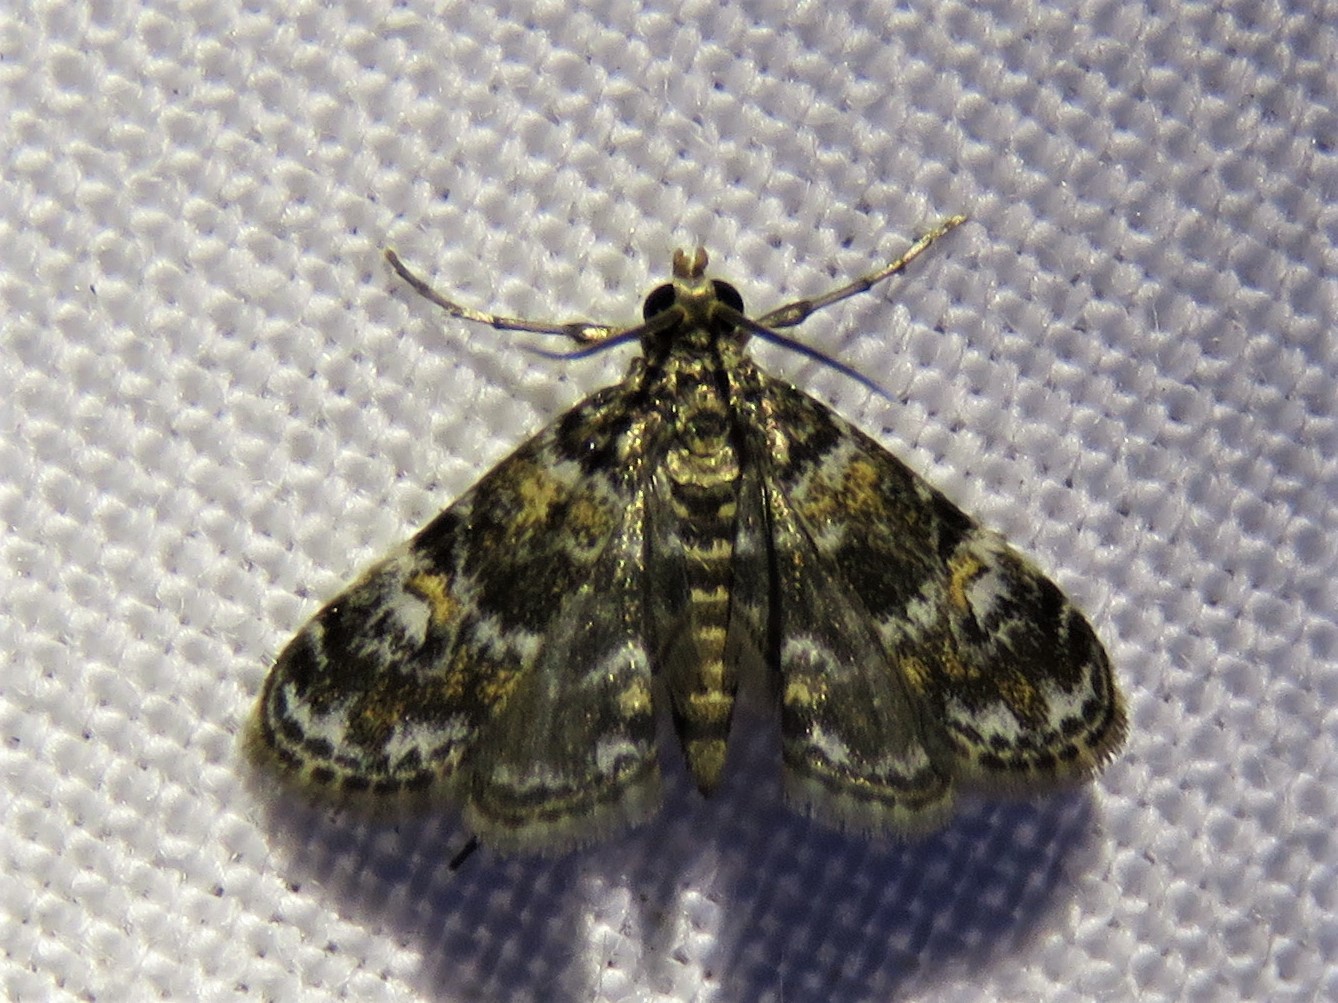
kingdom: Animalia
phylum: Arthropoda
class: Insecta
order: Lepidoptera
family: Crambidae
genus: Elophila
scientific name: Elophila obliteralis
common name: Waterlily leafcutter moth
